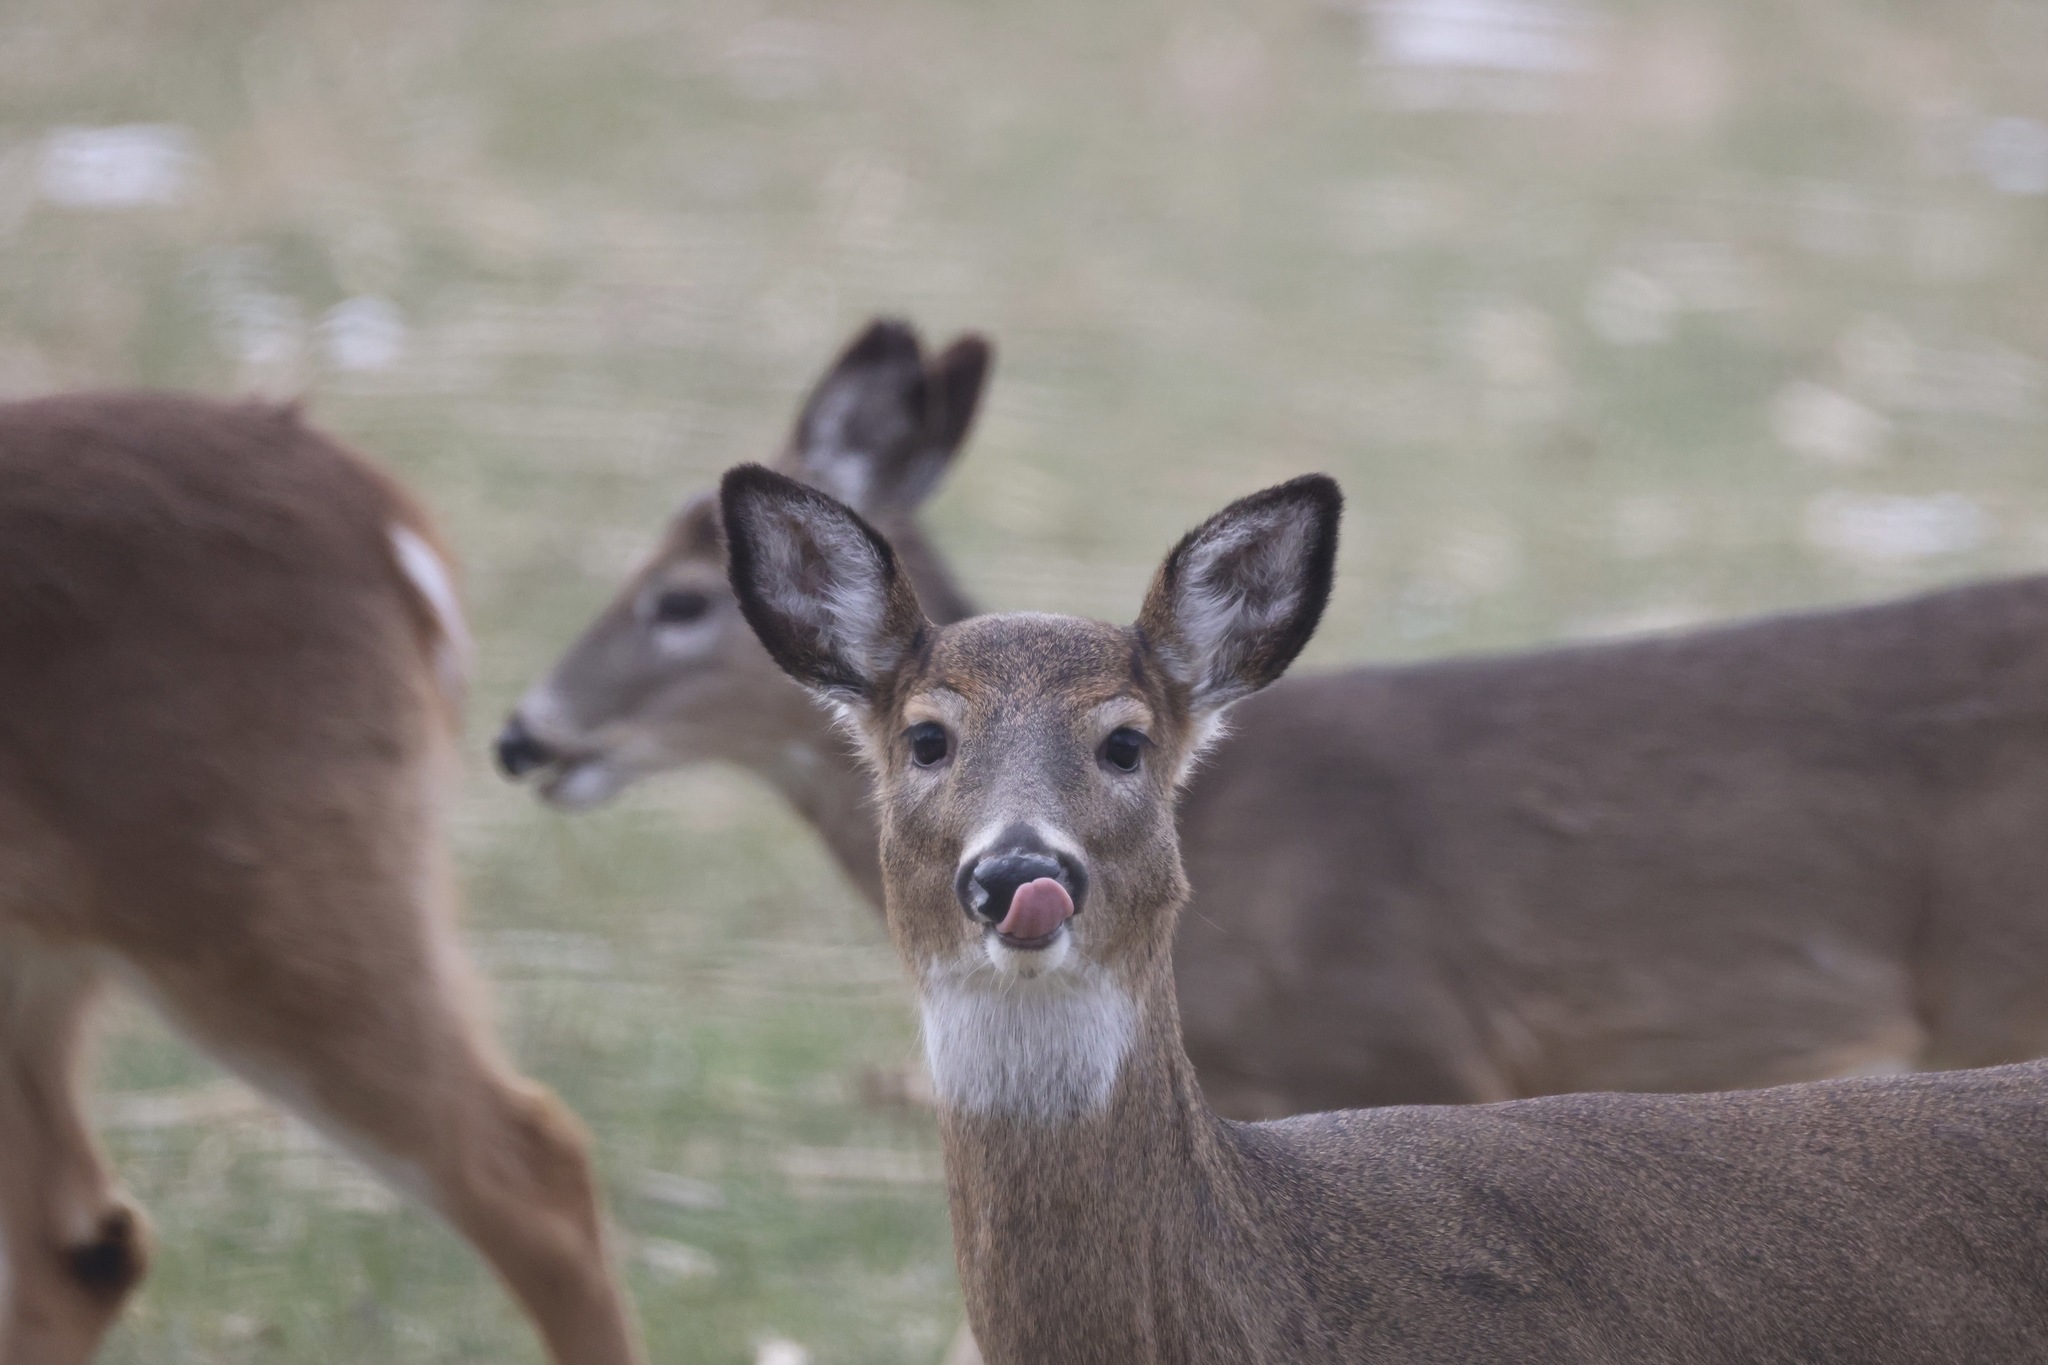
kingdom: Animalia
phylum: Chordata
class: Mammalia
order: Artiodactyla
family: Cervidae
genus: Odocoileus
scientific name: Odocoileus virginianus
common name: White-tailed deer
